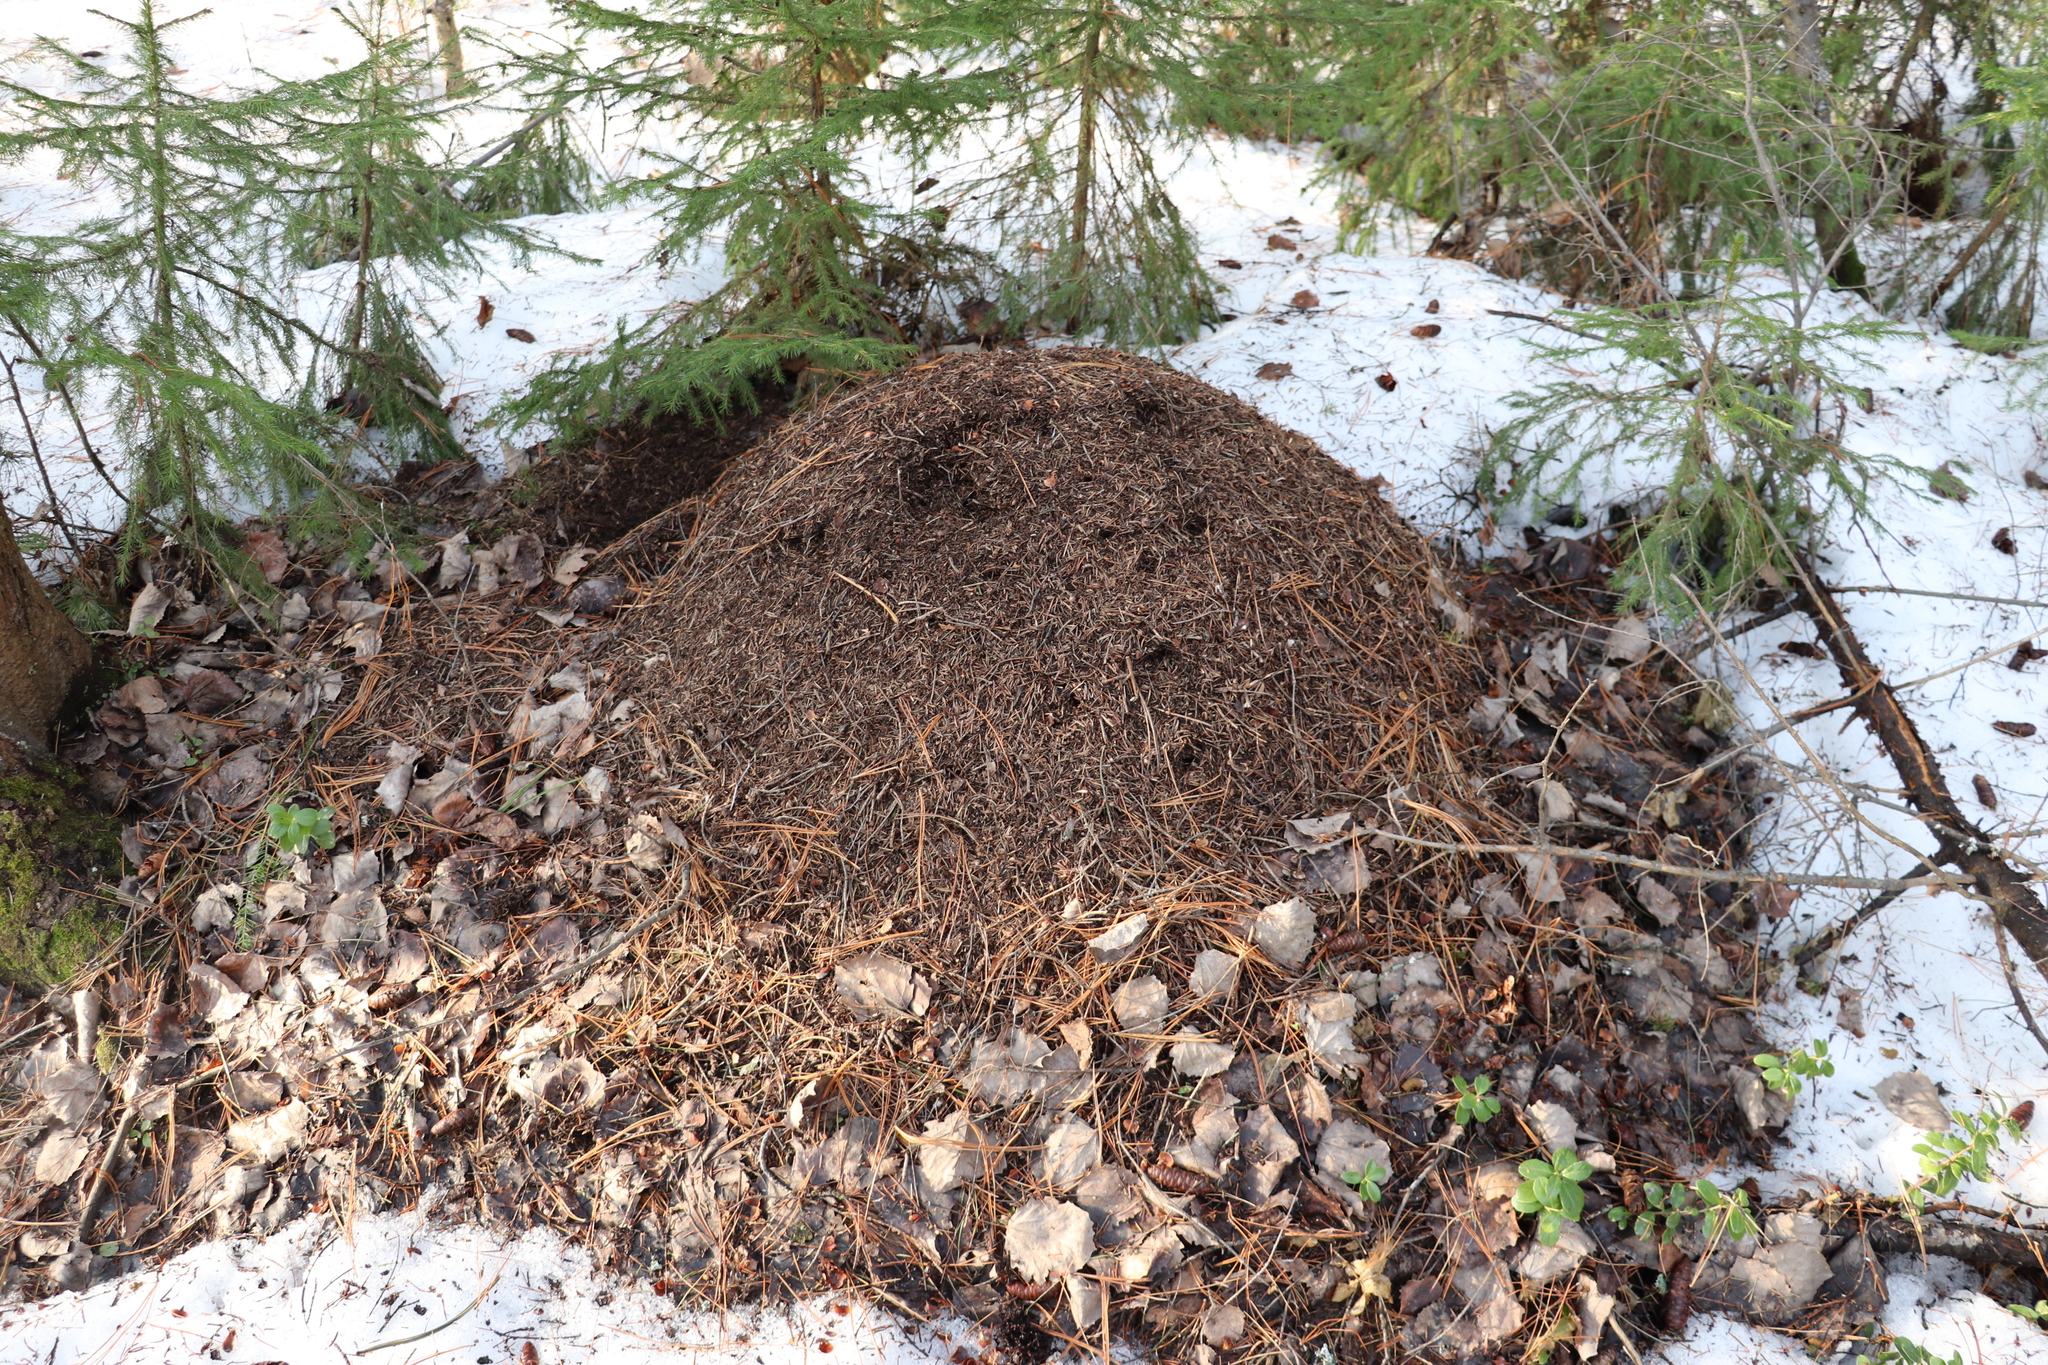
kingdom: Animalia
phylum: Arthropoda
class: Insecta
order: Hymenoptera
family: Formicidae
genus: Formica
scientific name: Formica rufa
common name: Red wood ant
